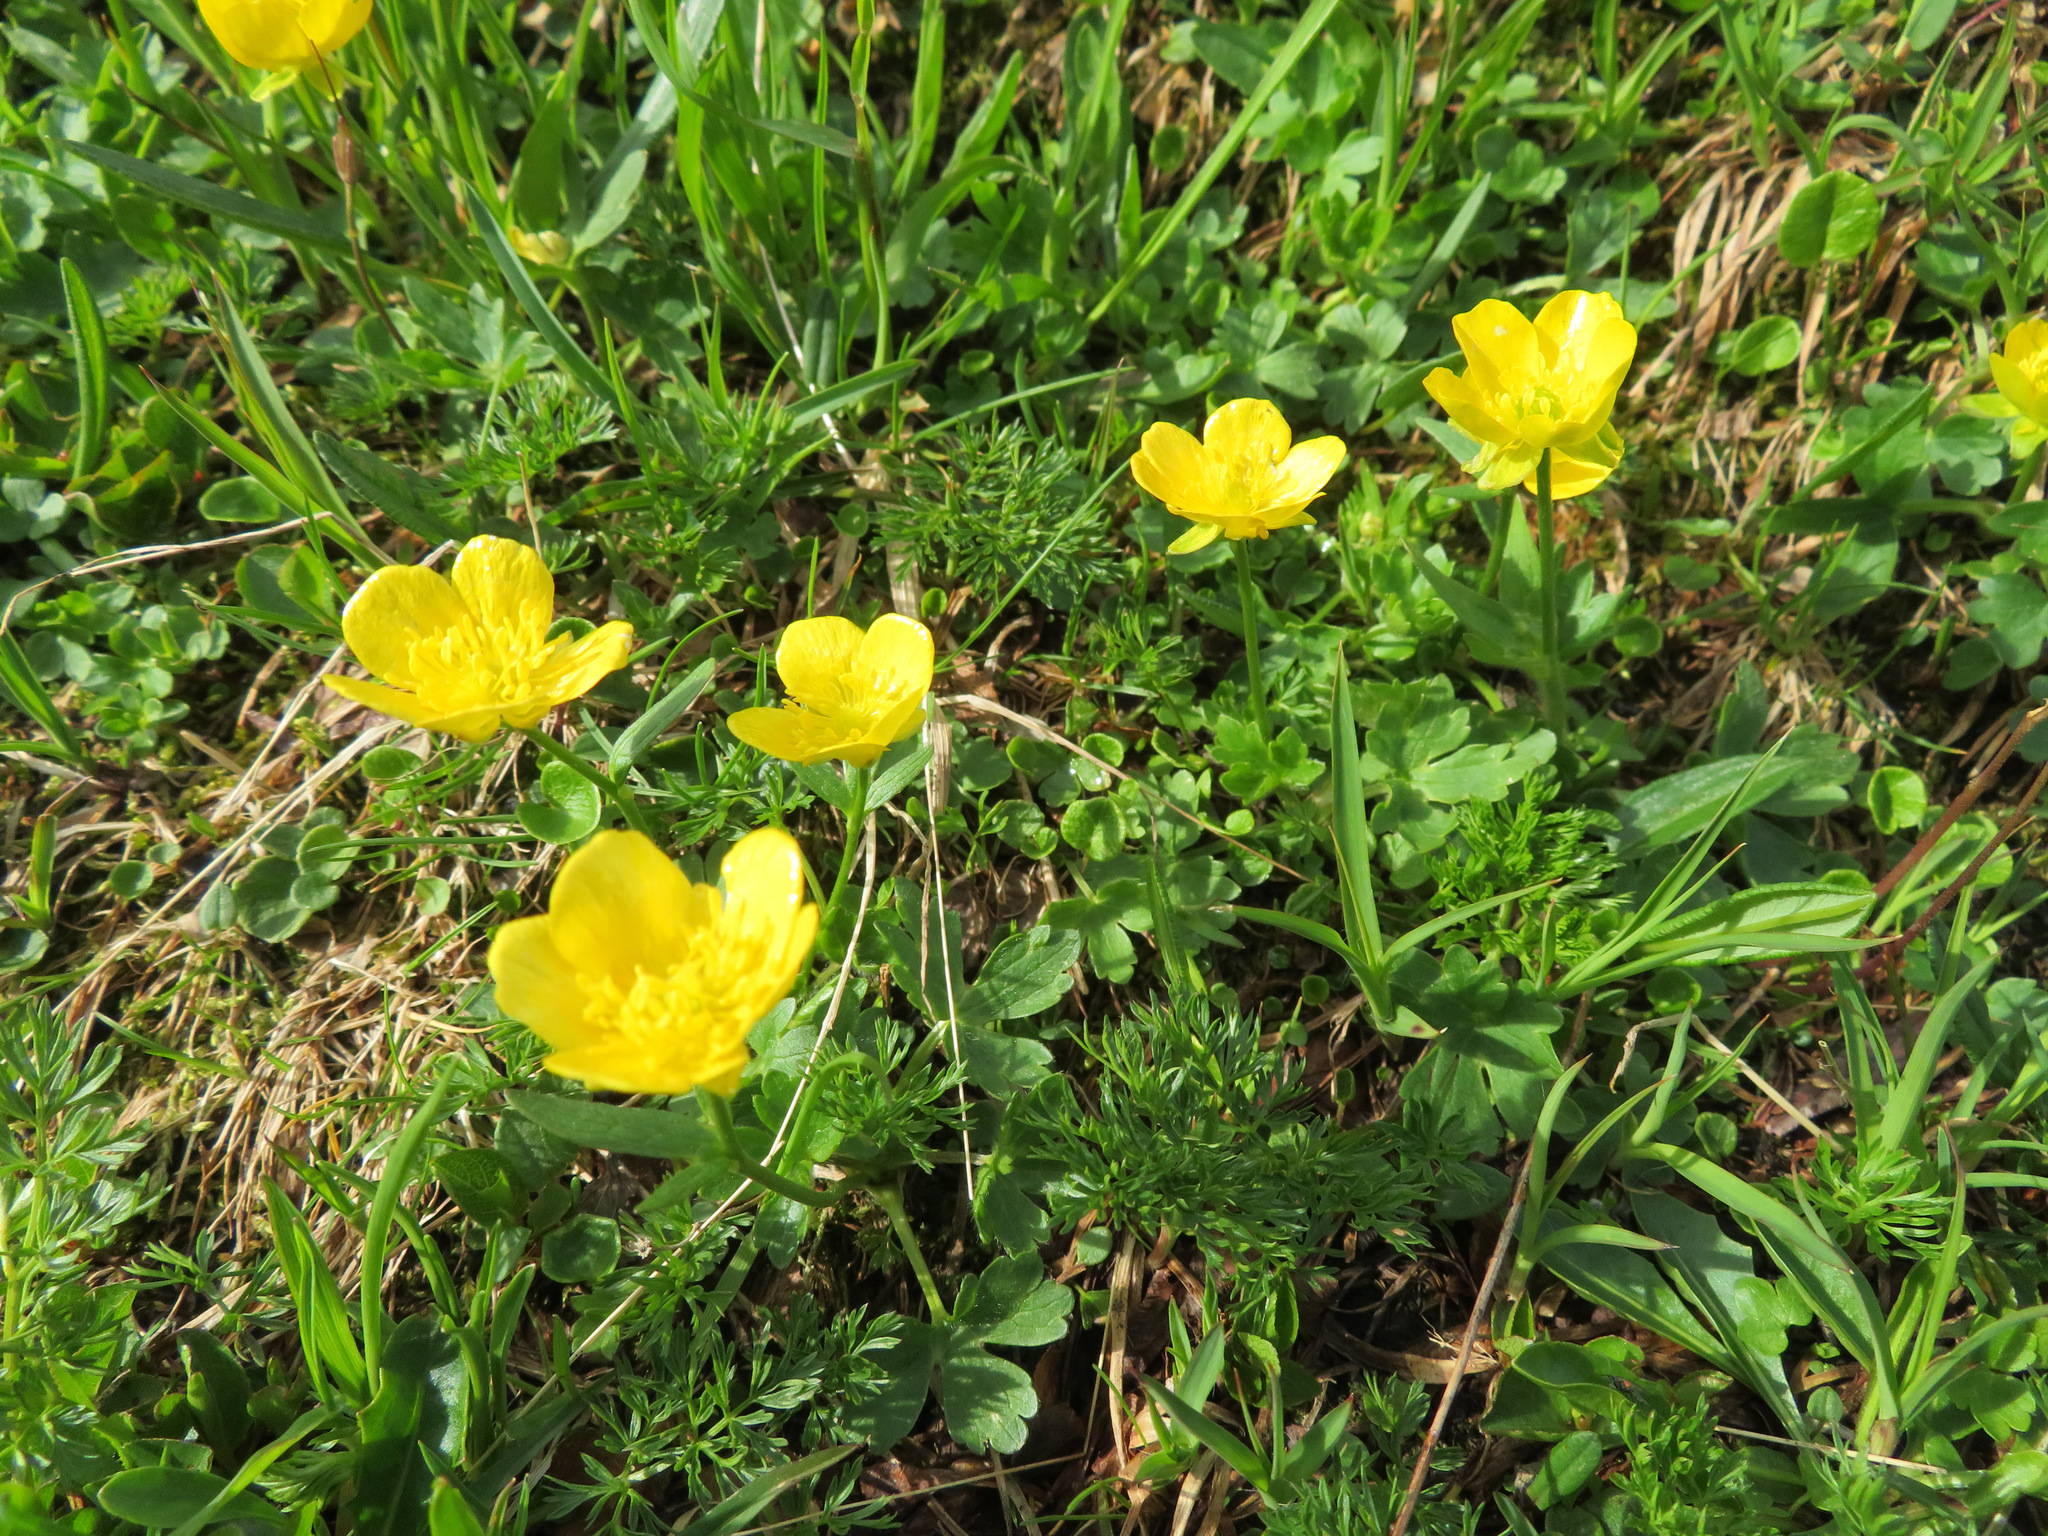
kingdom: Plantae
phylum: Tracheophyta
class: Magnoliopsida
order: Ranunculales
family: Ranunculaceae
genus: Ranunculus
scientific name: Ranunculus montanus
